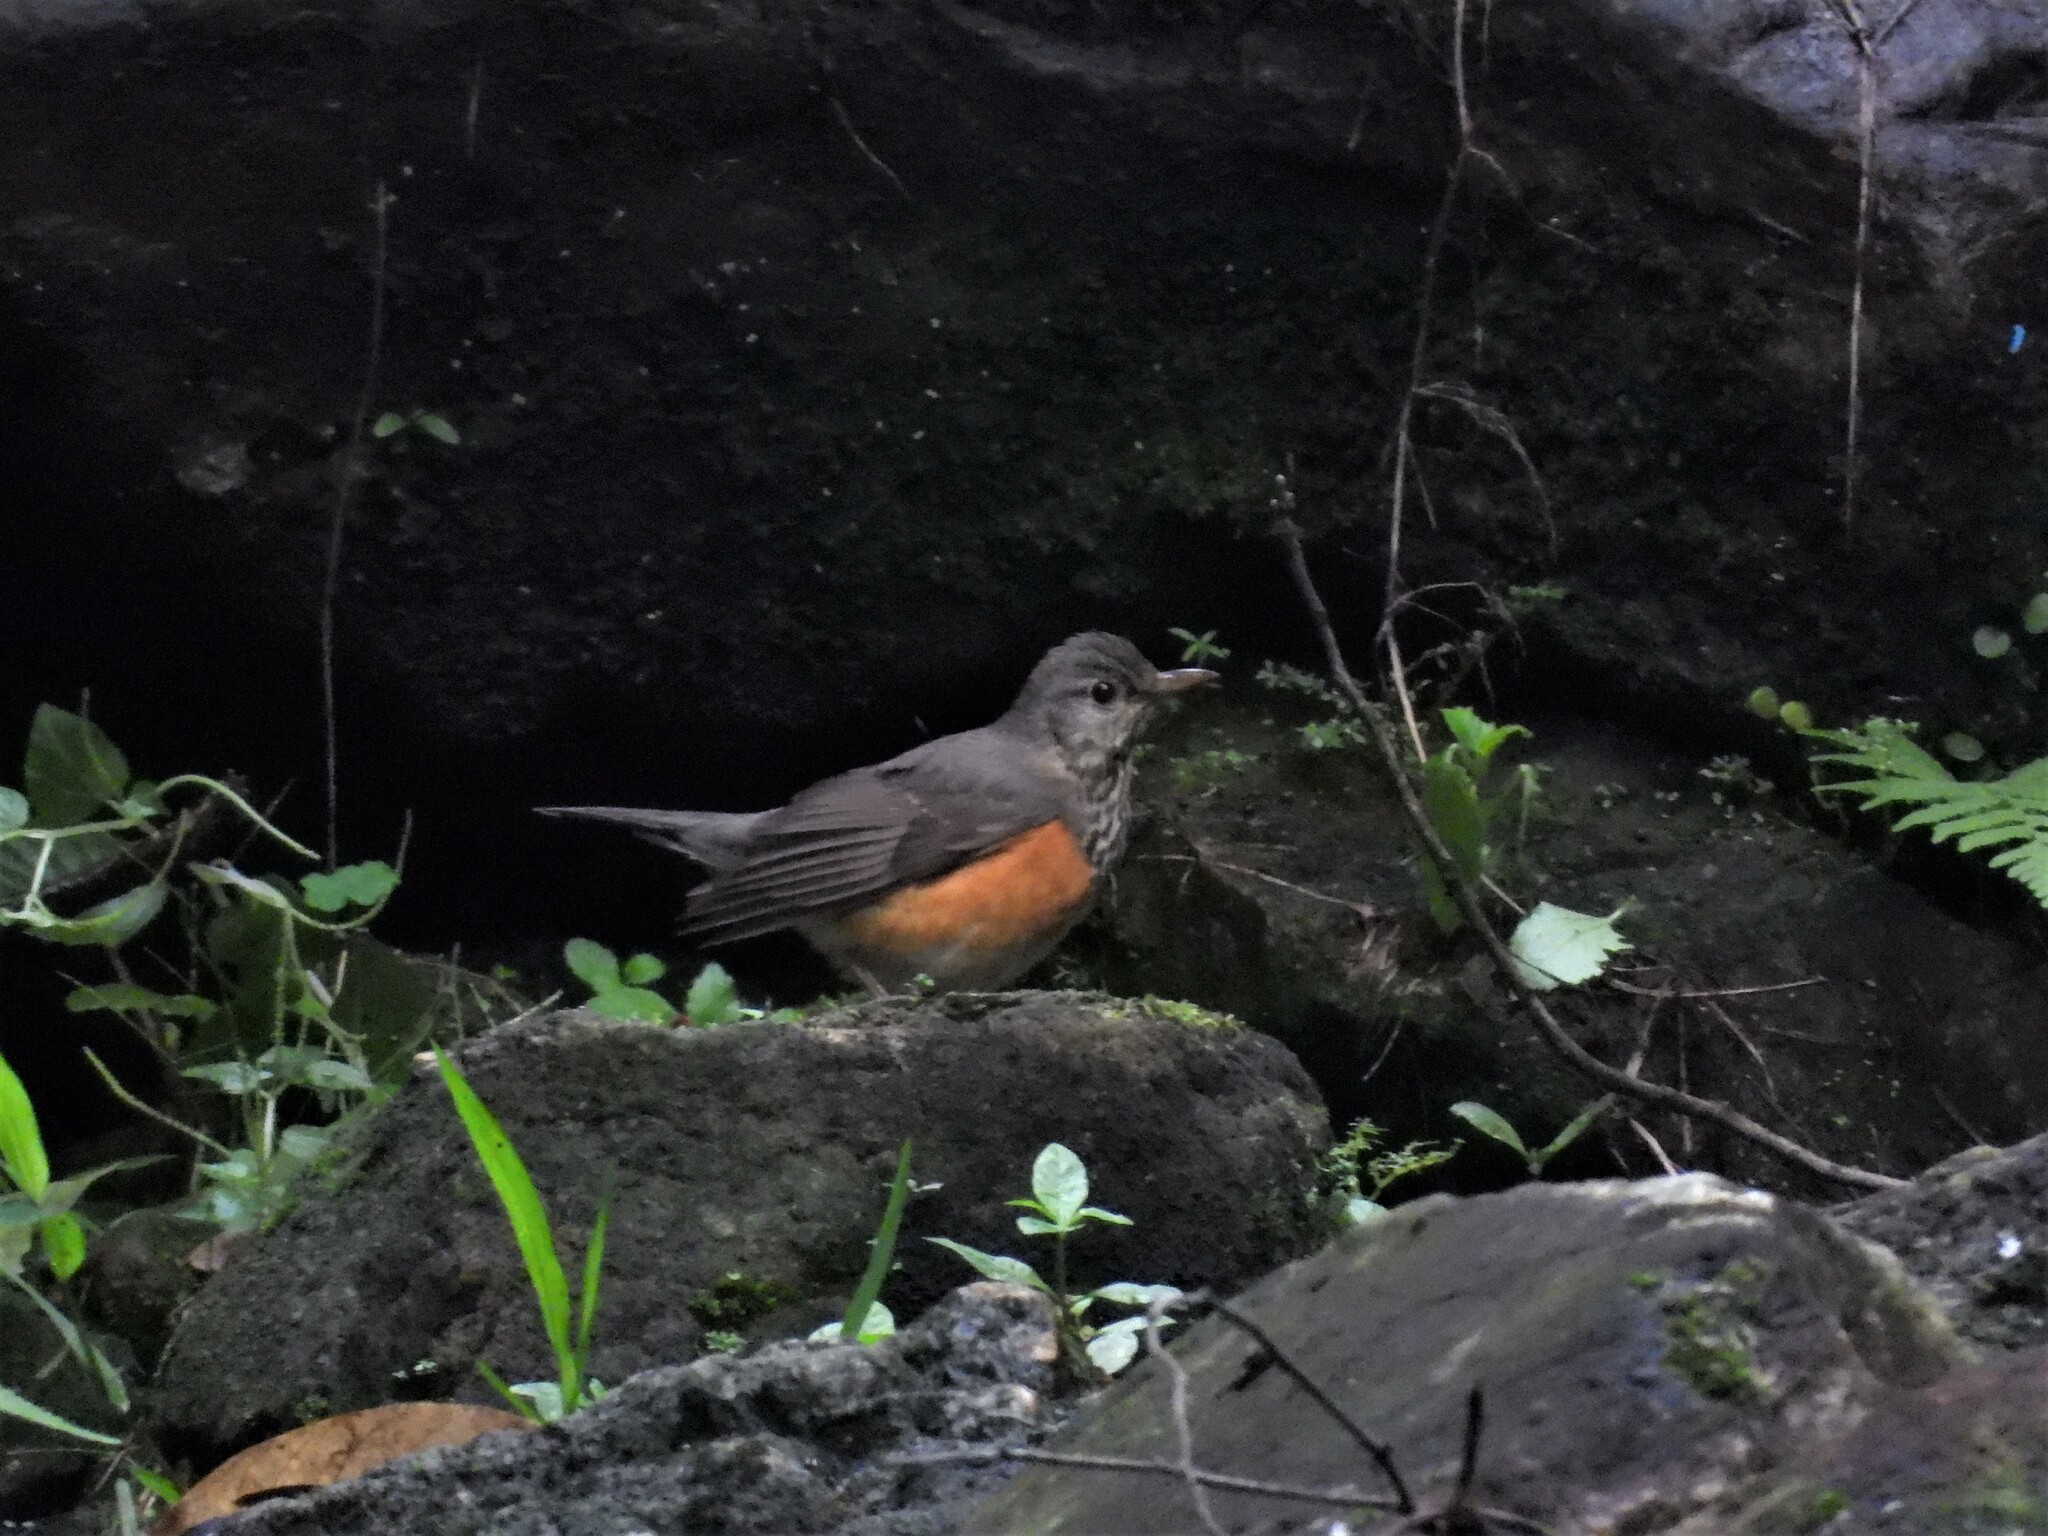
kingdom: Animalia
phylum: Chordata
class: Aves
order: Passeriformes
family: Turdidae
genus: Turdus
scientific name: Turdus hortulorum
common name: Grey-backed thrush
